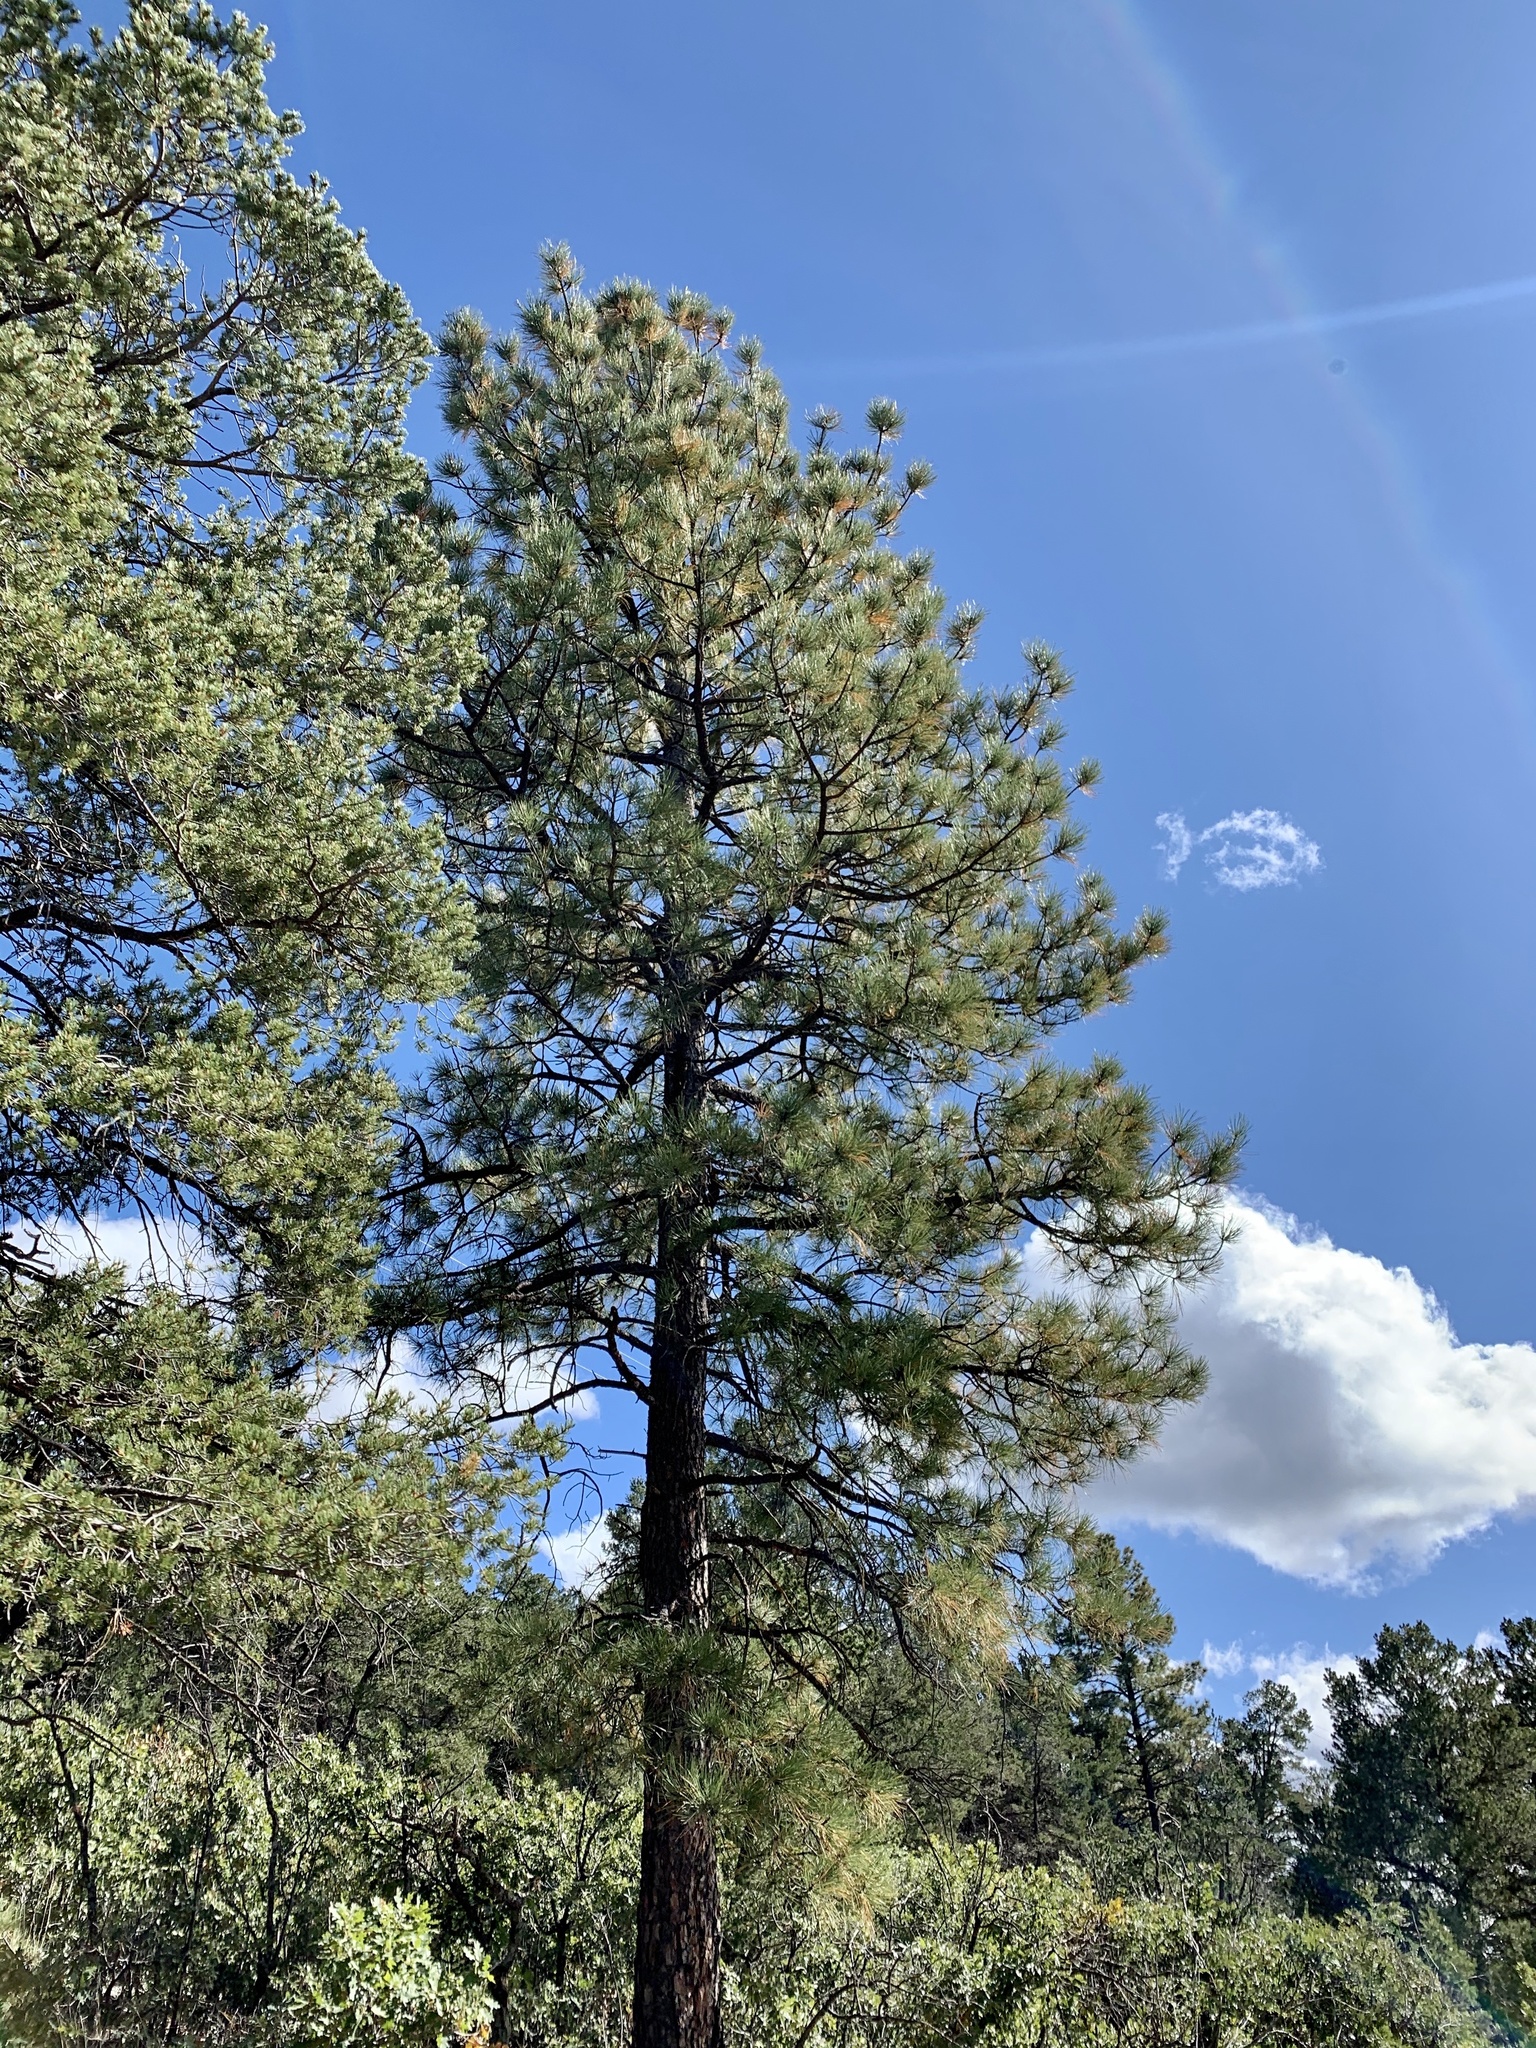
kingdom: Plantae
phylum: Tracheophyta
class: Pinopsida
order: Pinales
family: Pinaceae
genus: Pinus
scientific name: Pinus ponderosa
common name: Western yellow-pine
